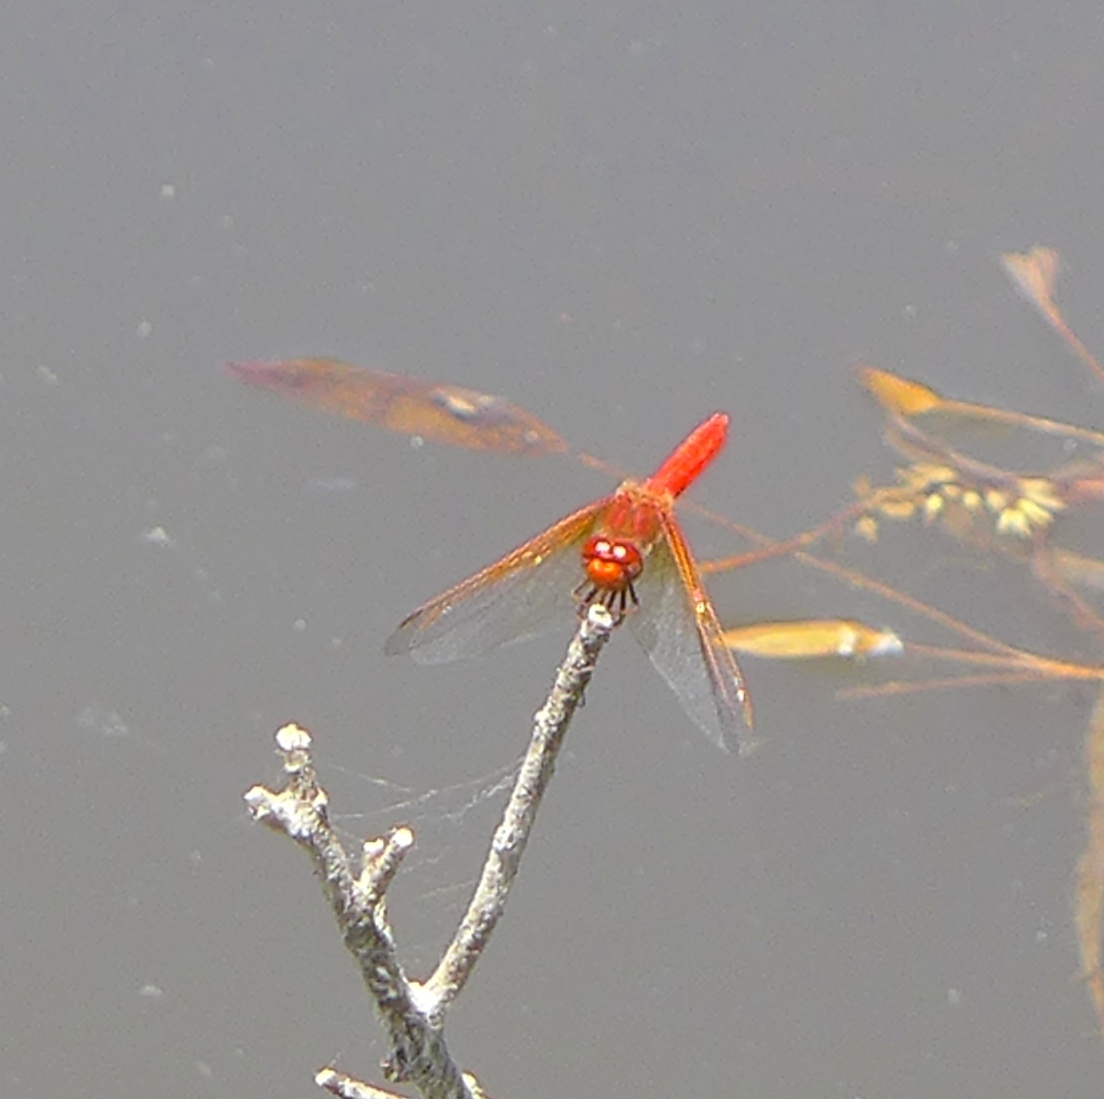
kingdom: Animalia
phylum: Arthropoda
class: Insecta
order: Odonata
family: Libellulidae
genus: Sympetrum
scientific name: Sympetrum illotum
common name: Cardinal meadowhawk
